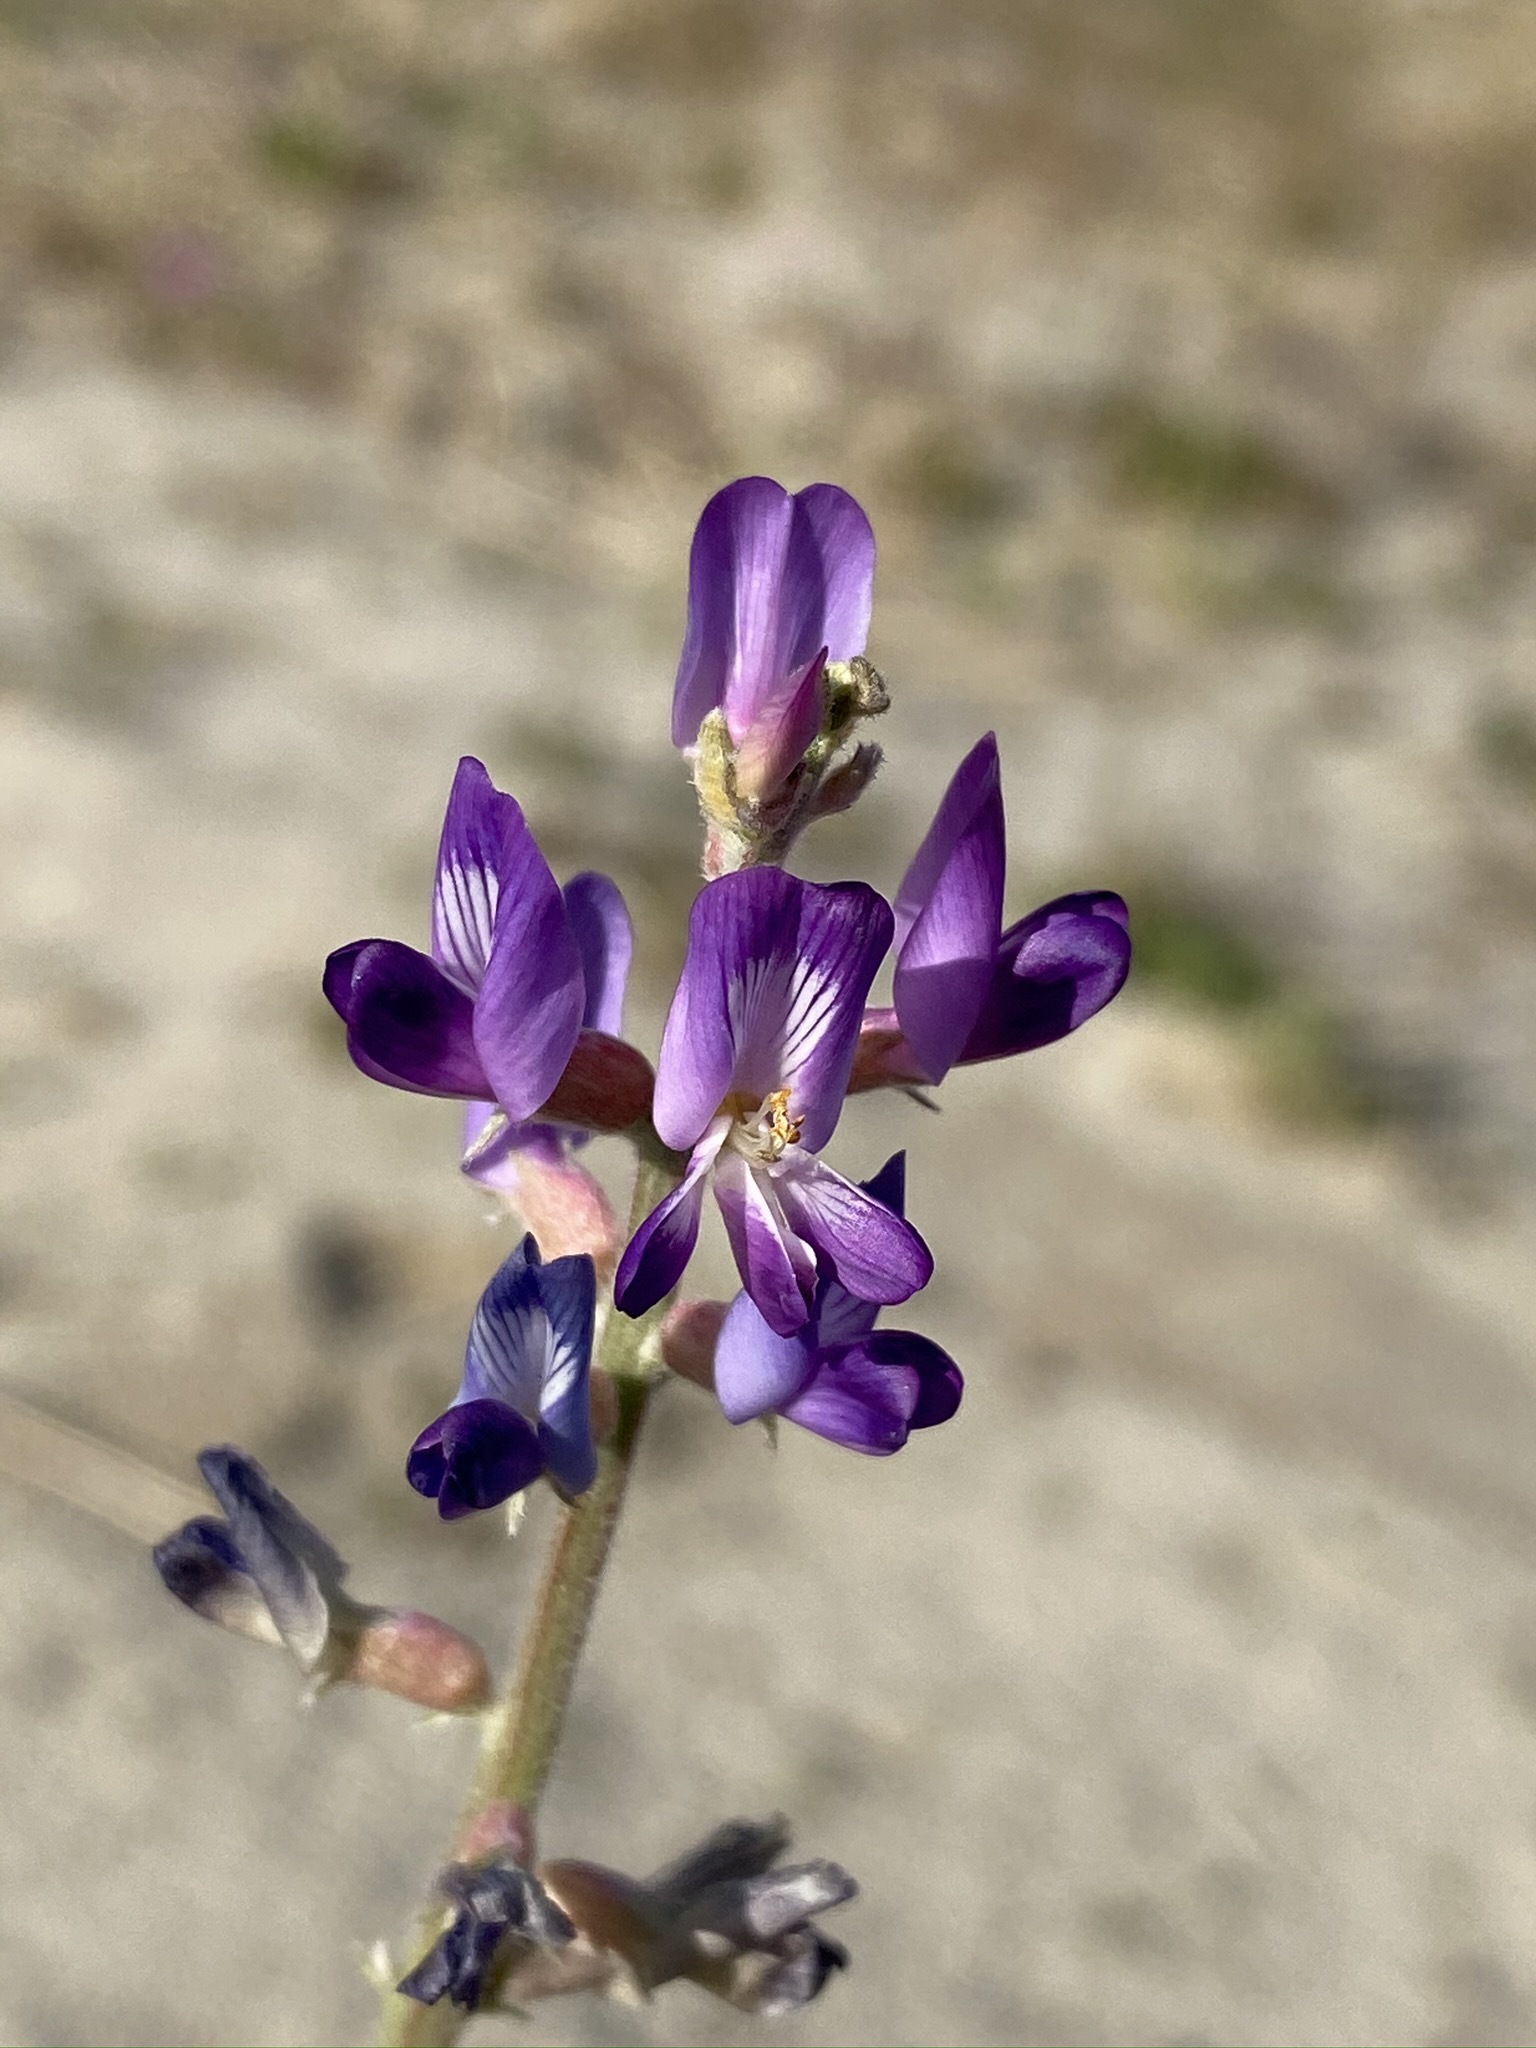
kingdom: Plantae
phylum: Tracheophyta
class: Magnoliopsida
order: Fabales
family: Fabaceae
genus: Astragalus
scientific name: Astragalus lentiginosus
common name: Freckled milkvetch
